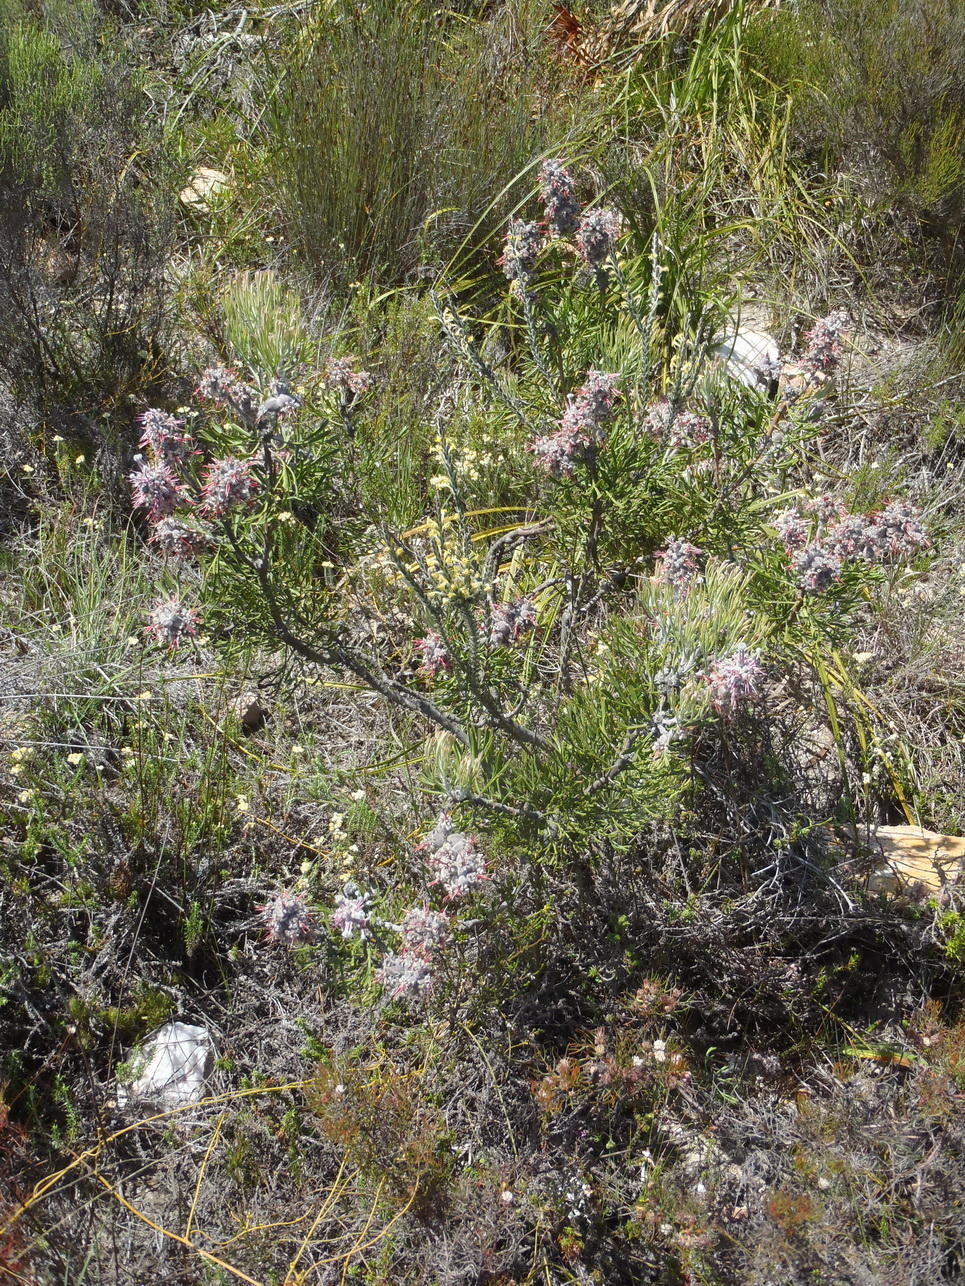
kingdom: Plantae
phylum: Tracheophyta
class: Magnoliopsida
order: Proteales
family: Proteaceae
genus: Paranomus
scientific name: Paranomus dispersus
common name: Long-head sceptre
